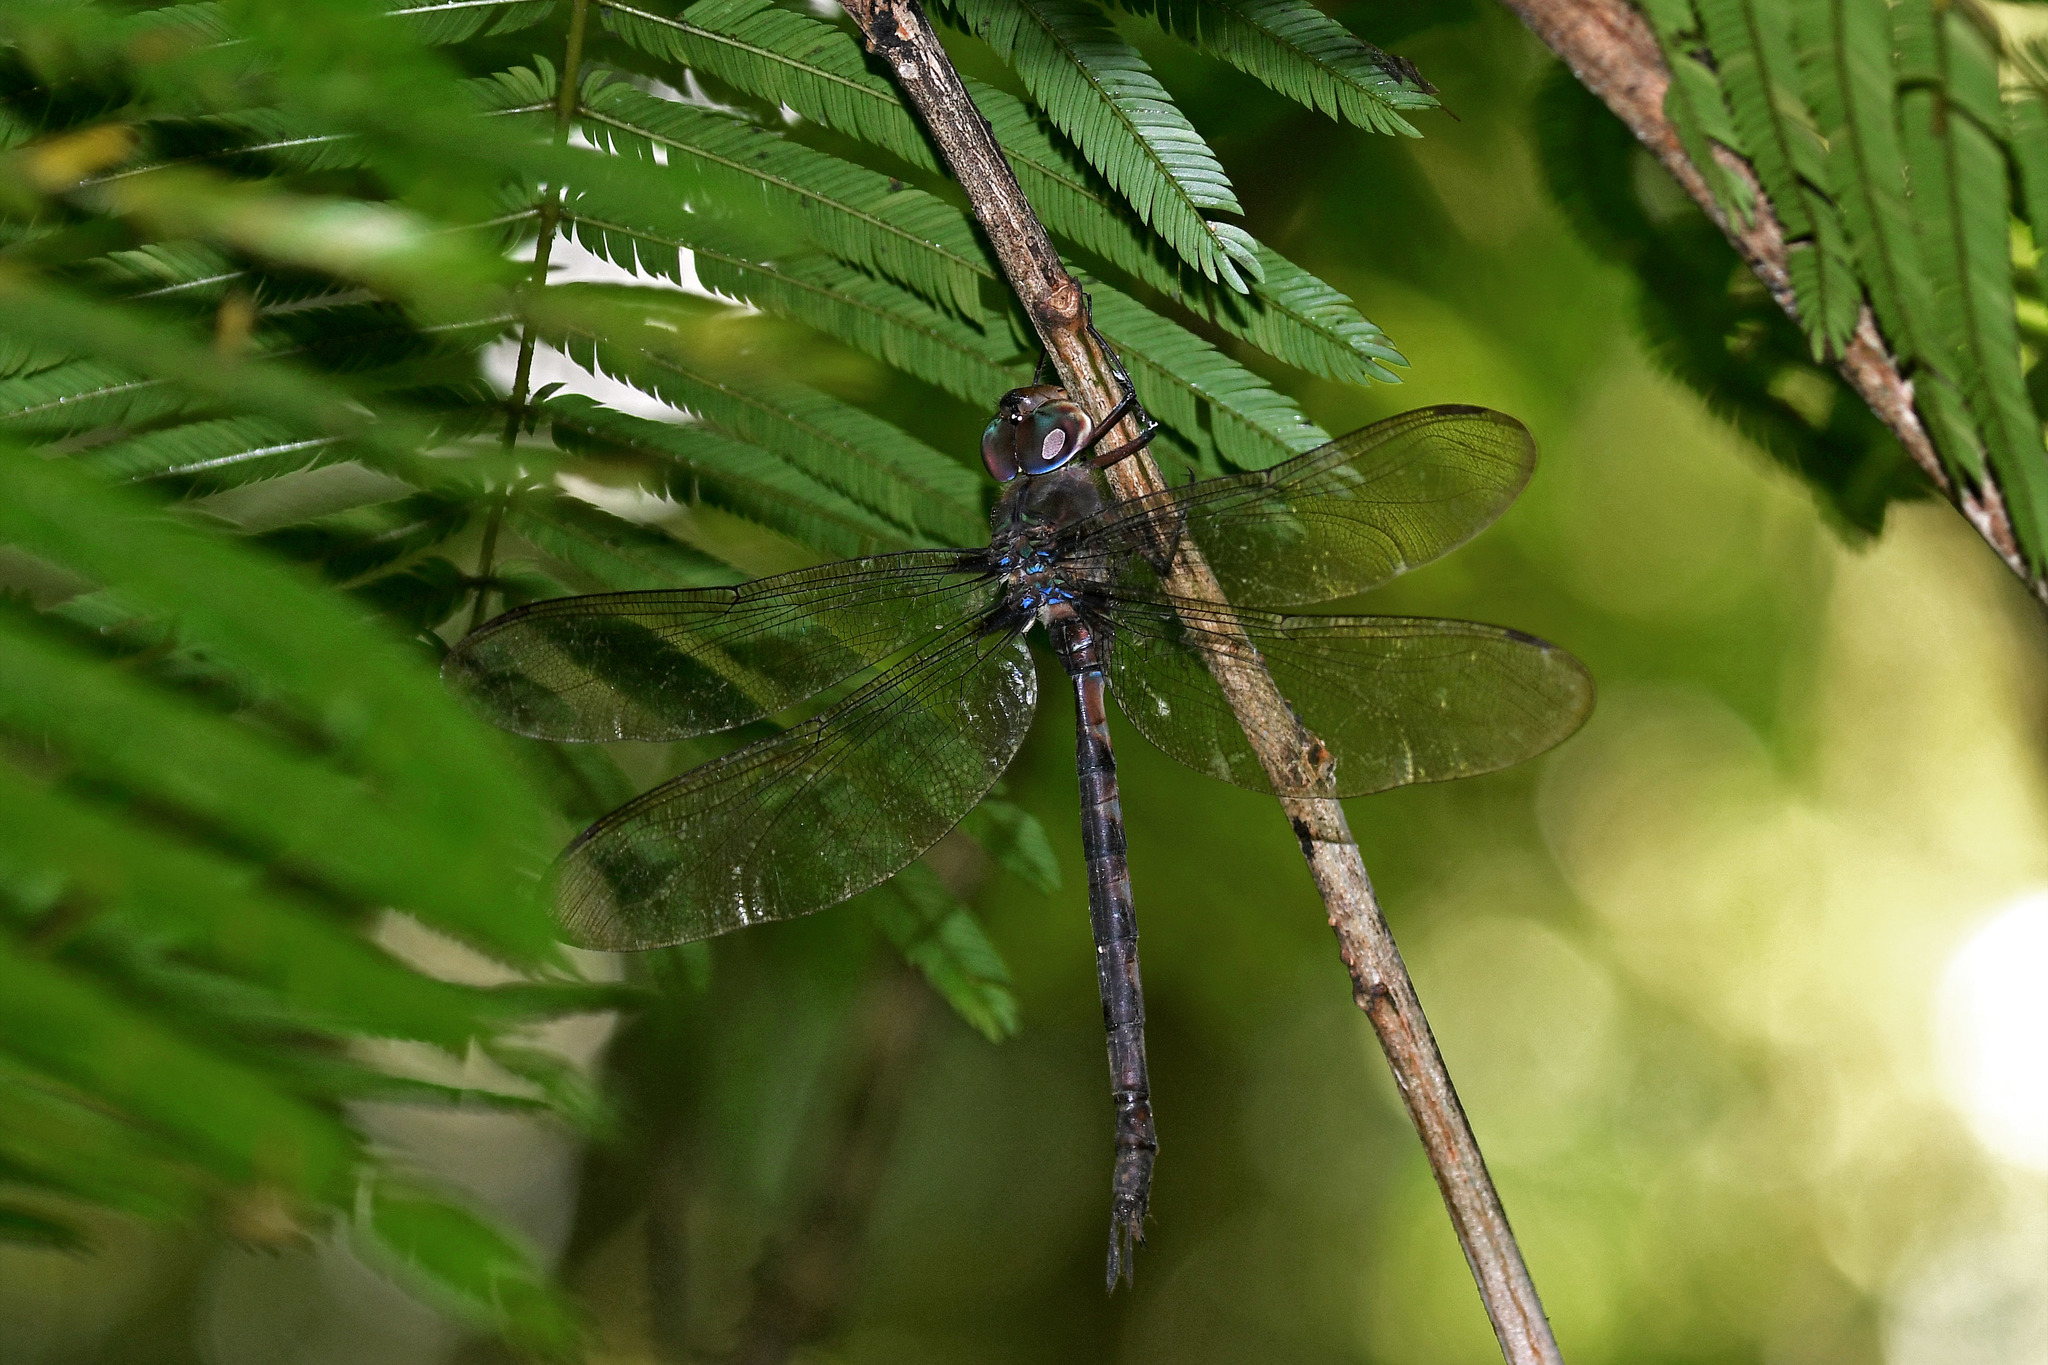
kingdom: Animalia
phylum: Arthropoda
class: Insecta
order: Odonata
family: Aeshnidae
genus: Gynacantha
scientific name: Gynacantha gracilis
